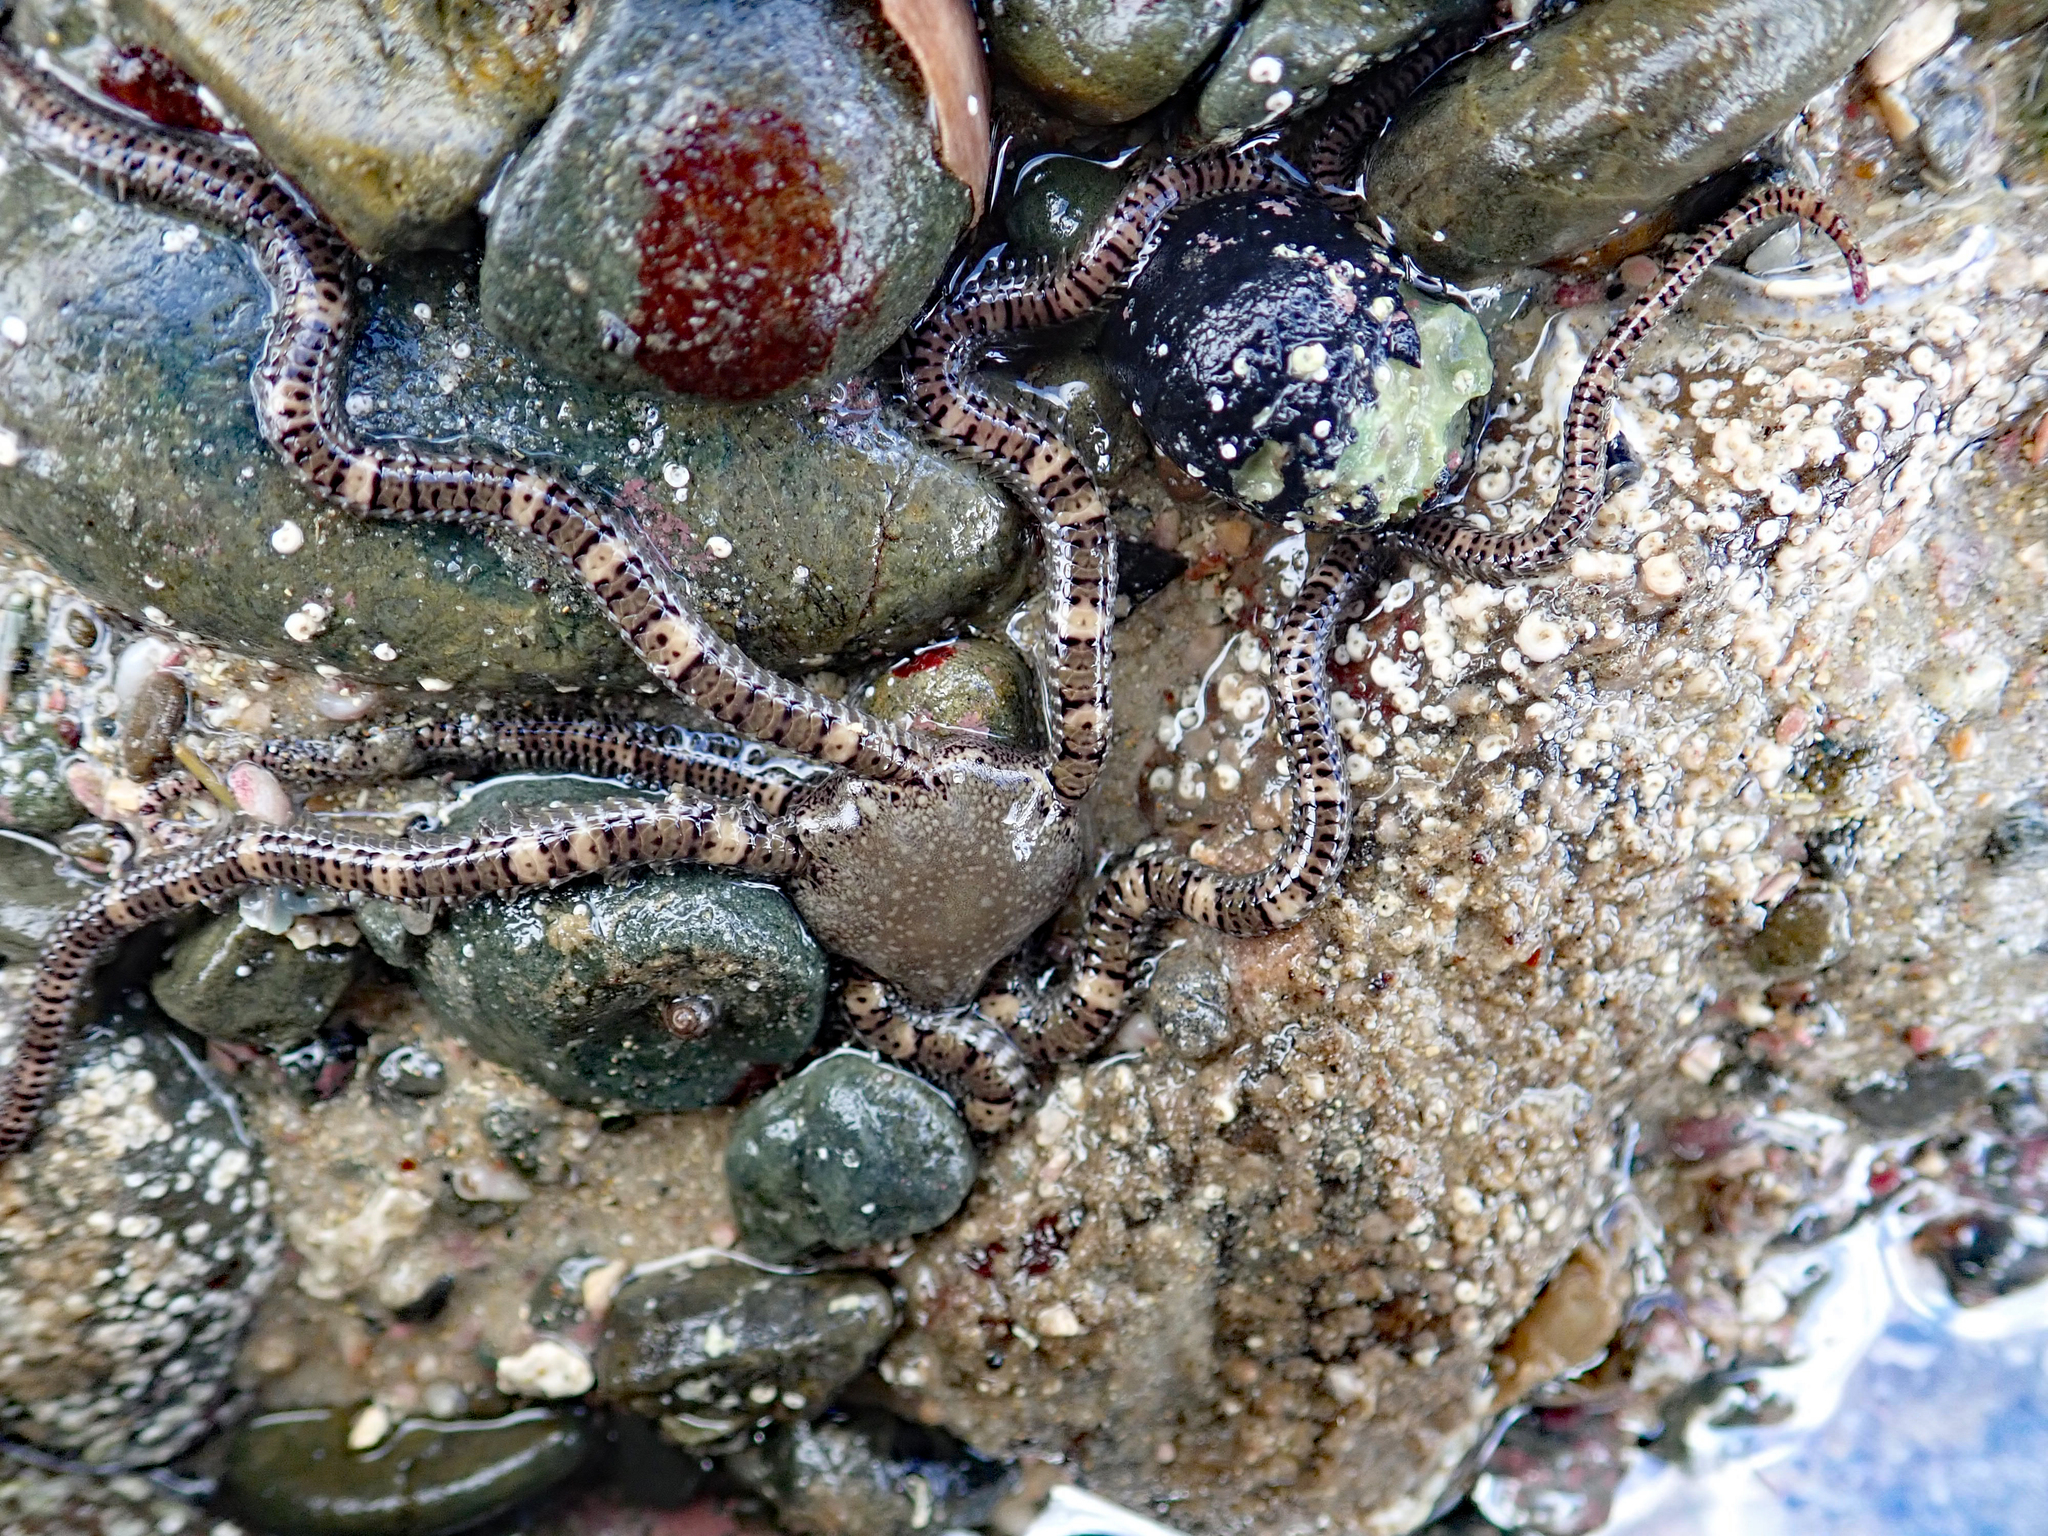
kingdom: Animalia
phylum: Echinodermata
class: Ophiuroidea
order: Amphilepidida
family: Ophionereididae
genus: Ophionereis
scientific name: Ophionereis fasciata
